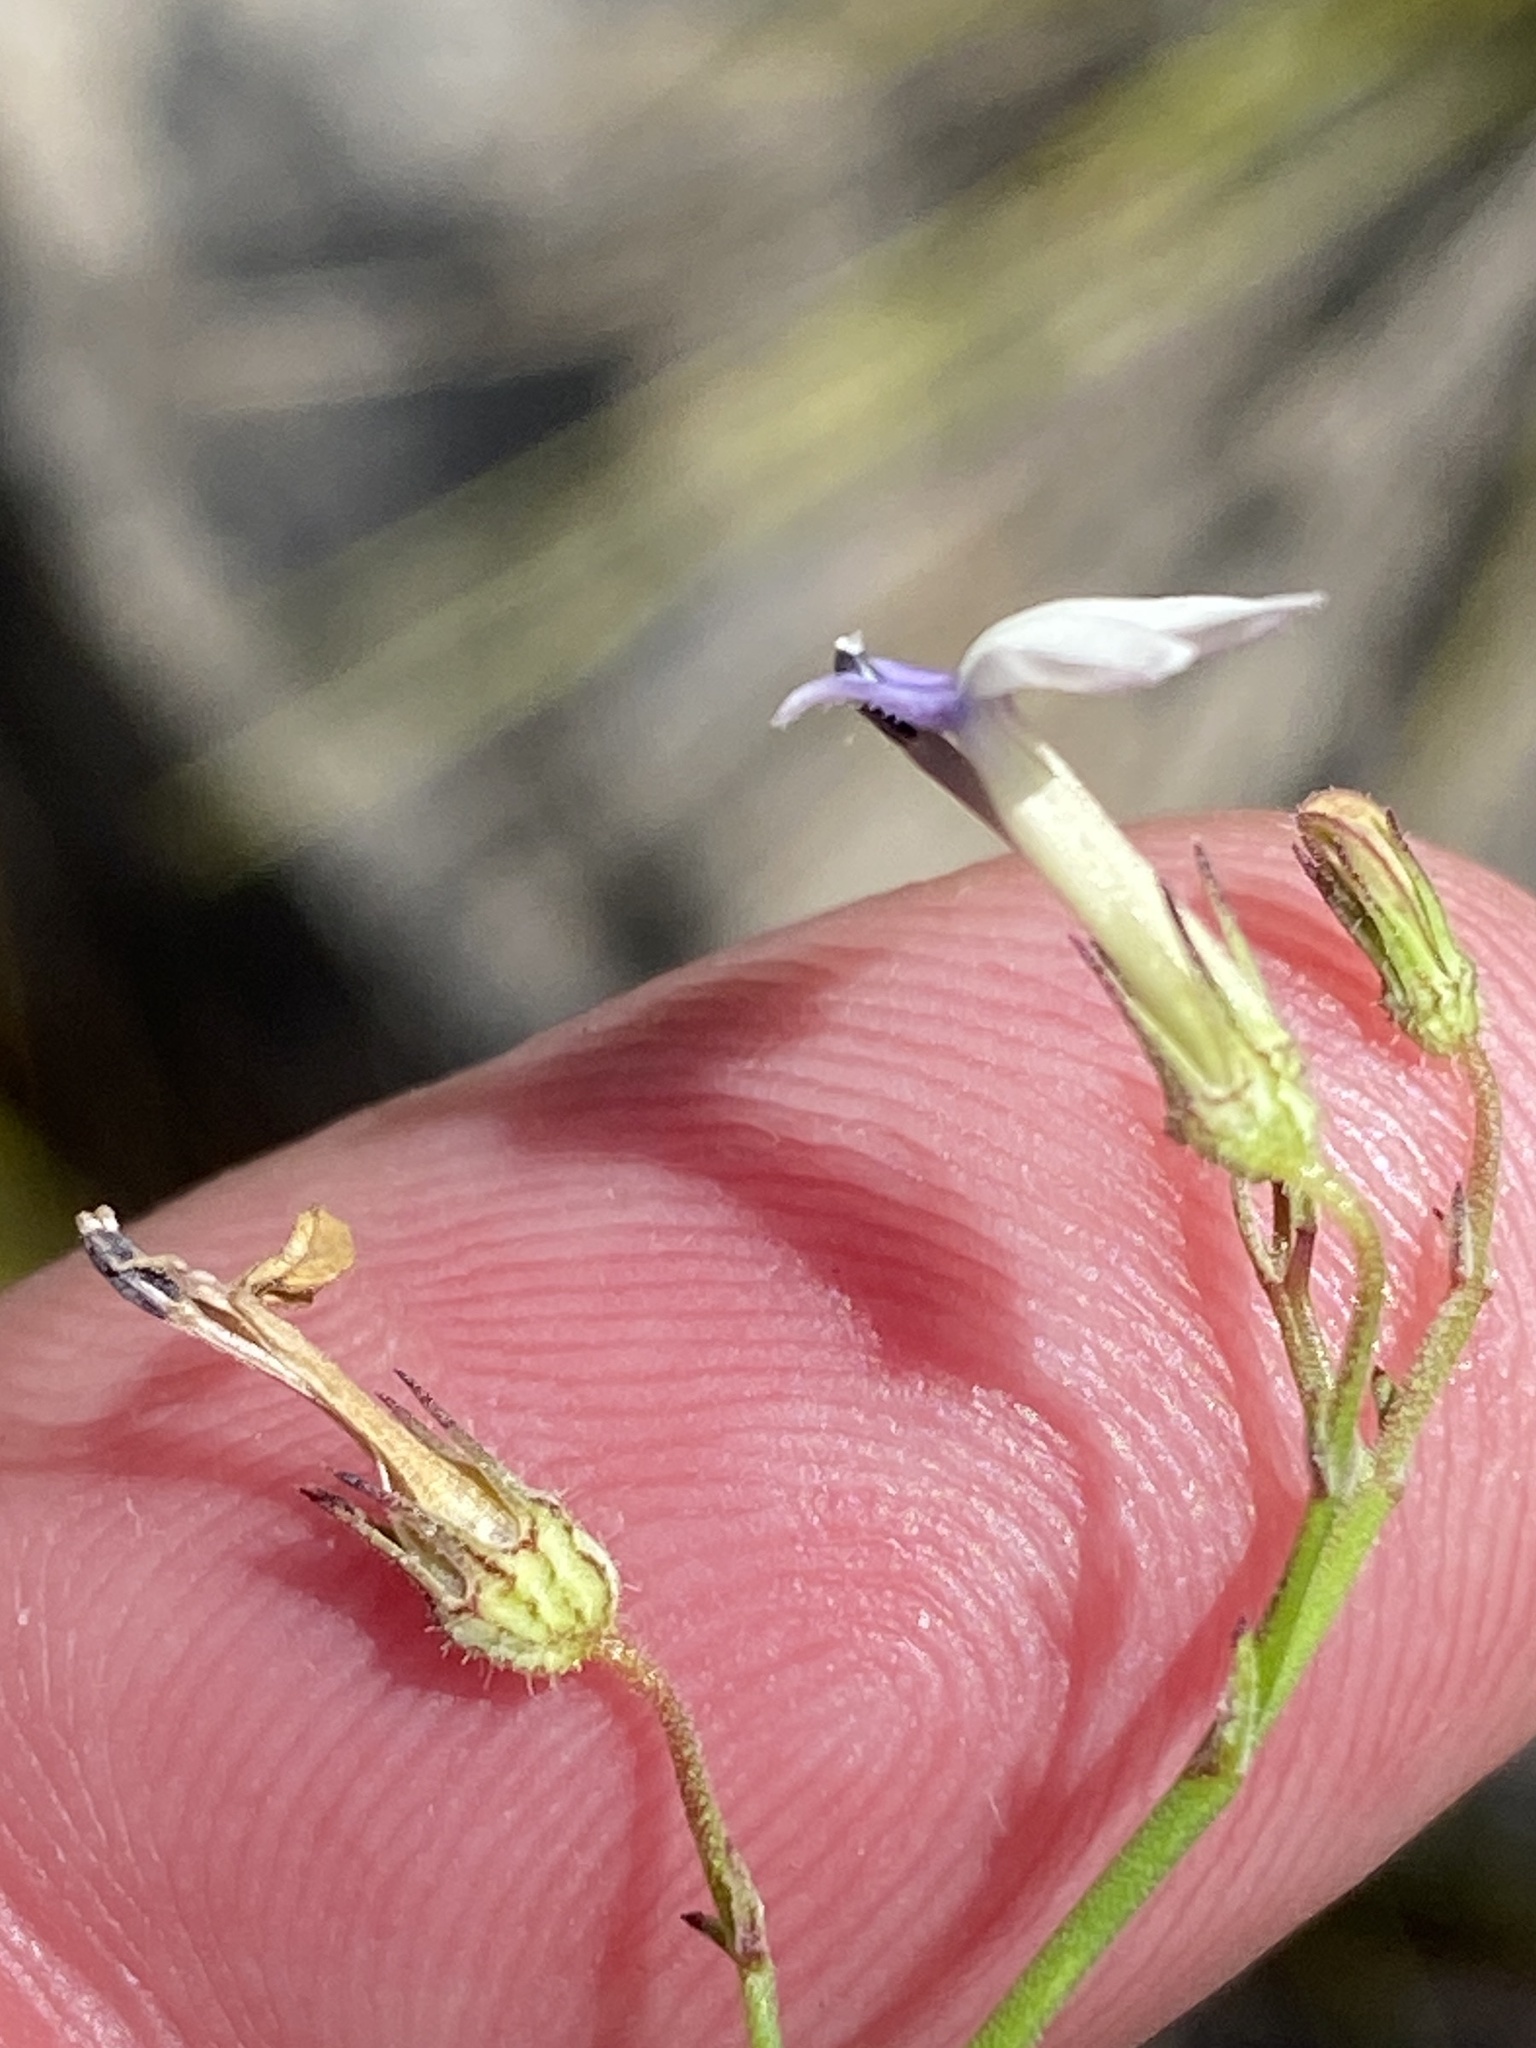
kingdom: Plantae
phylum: Tracheophyta
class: Magnoliopsida
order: Asterales
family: Campanulaceae
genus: Lobelia
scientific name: Lobelia capillifolia
